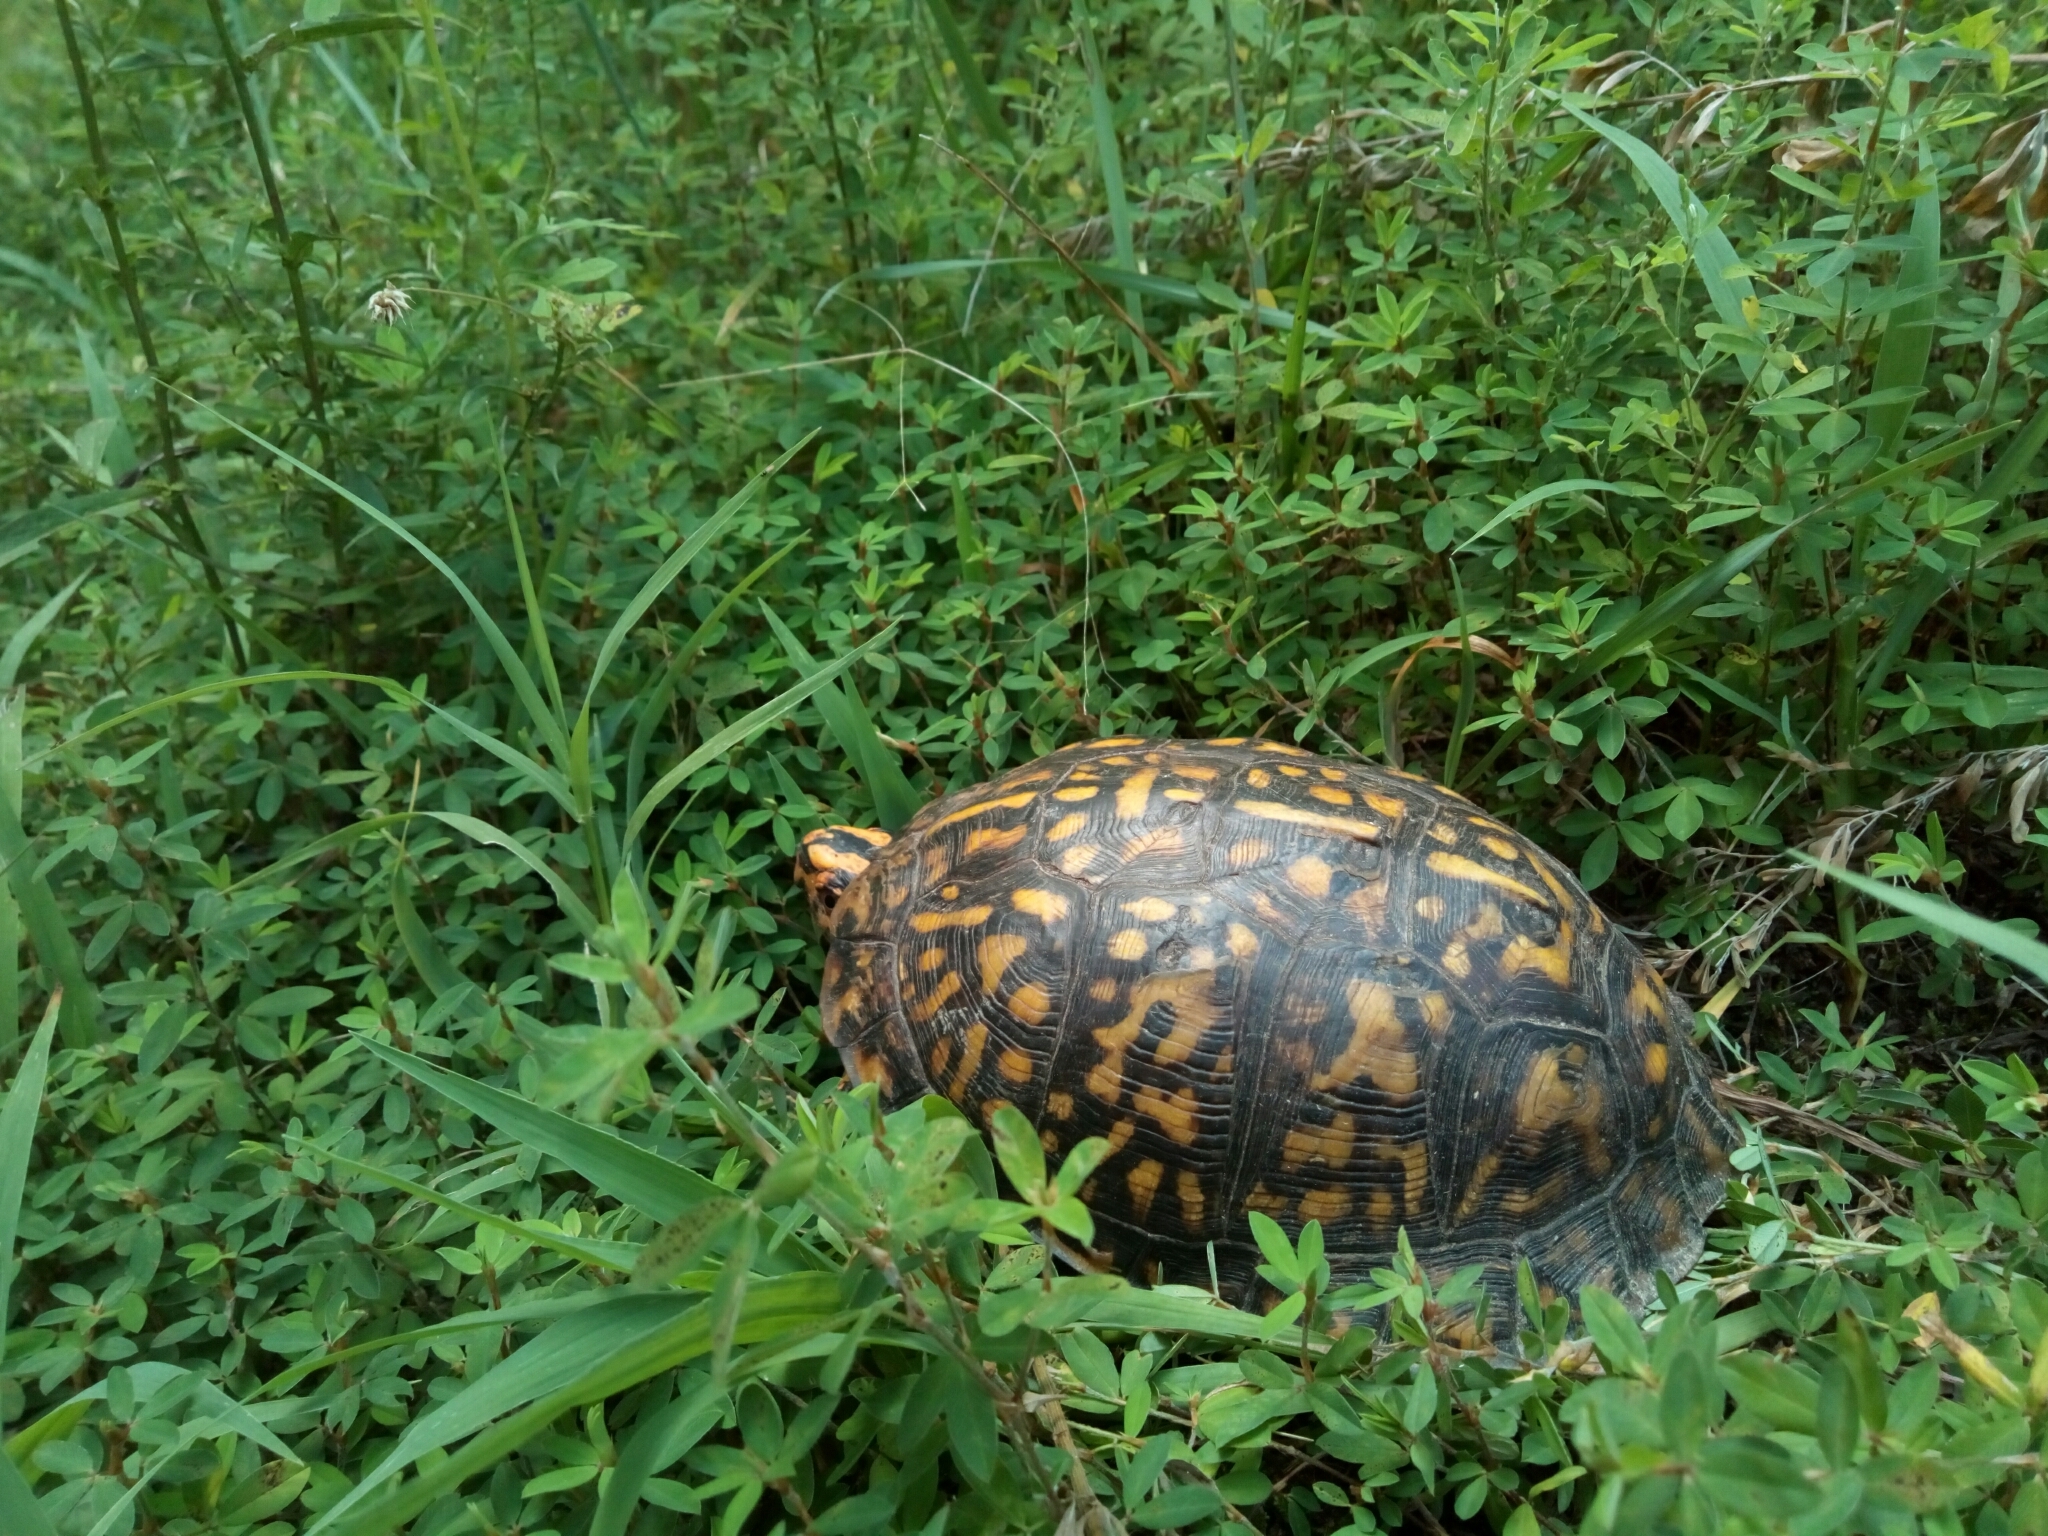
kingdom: Animalia
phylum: Chordata
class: Testudines
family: Emydidae
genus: Terrapene
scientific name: Terrapene carolina
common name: Common box turtle
